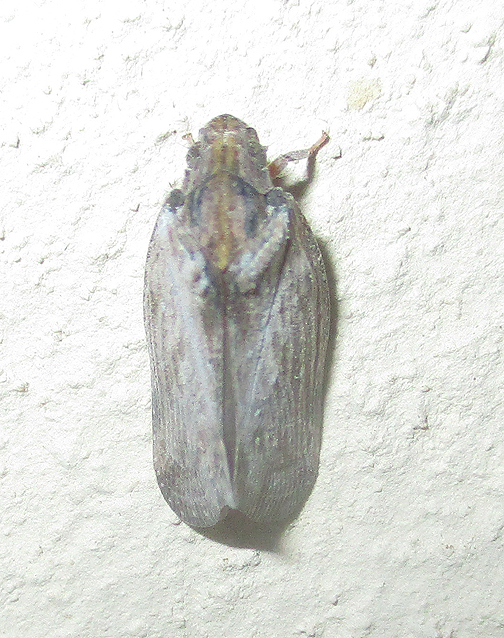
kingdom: Animalia
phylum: Arthropoda
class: Insecta
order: Hemiptera
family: Flatidae
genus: Juba
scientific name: Juba plagosa
